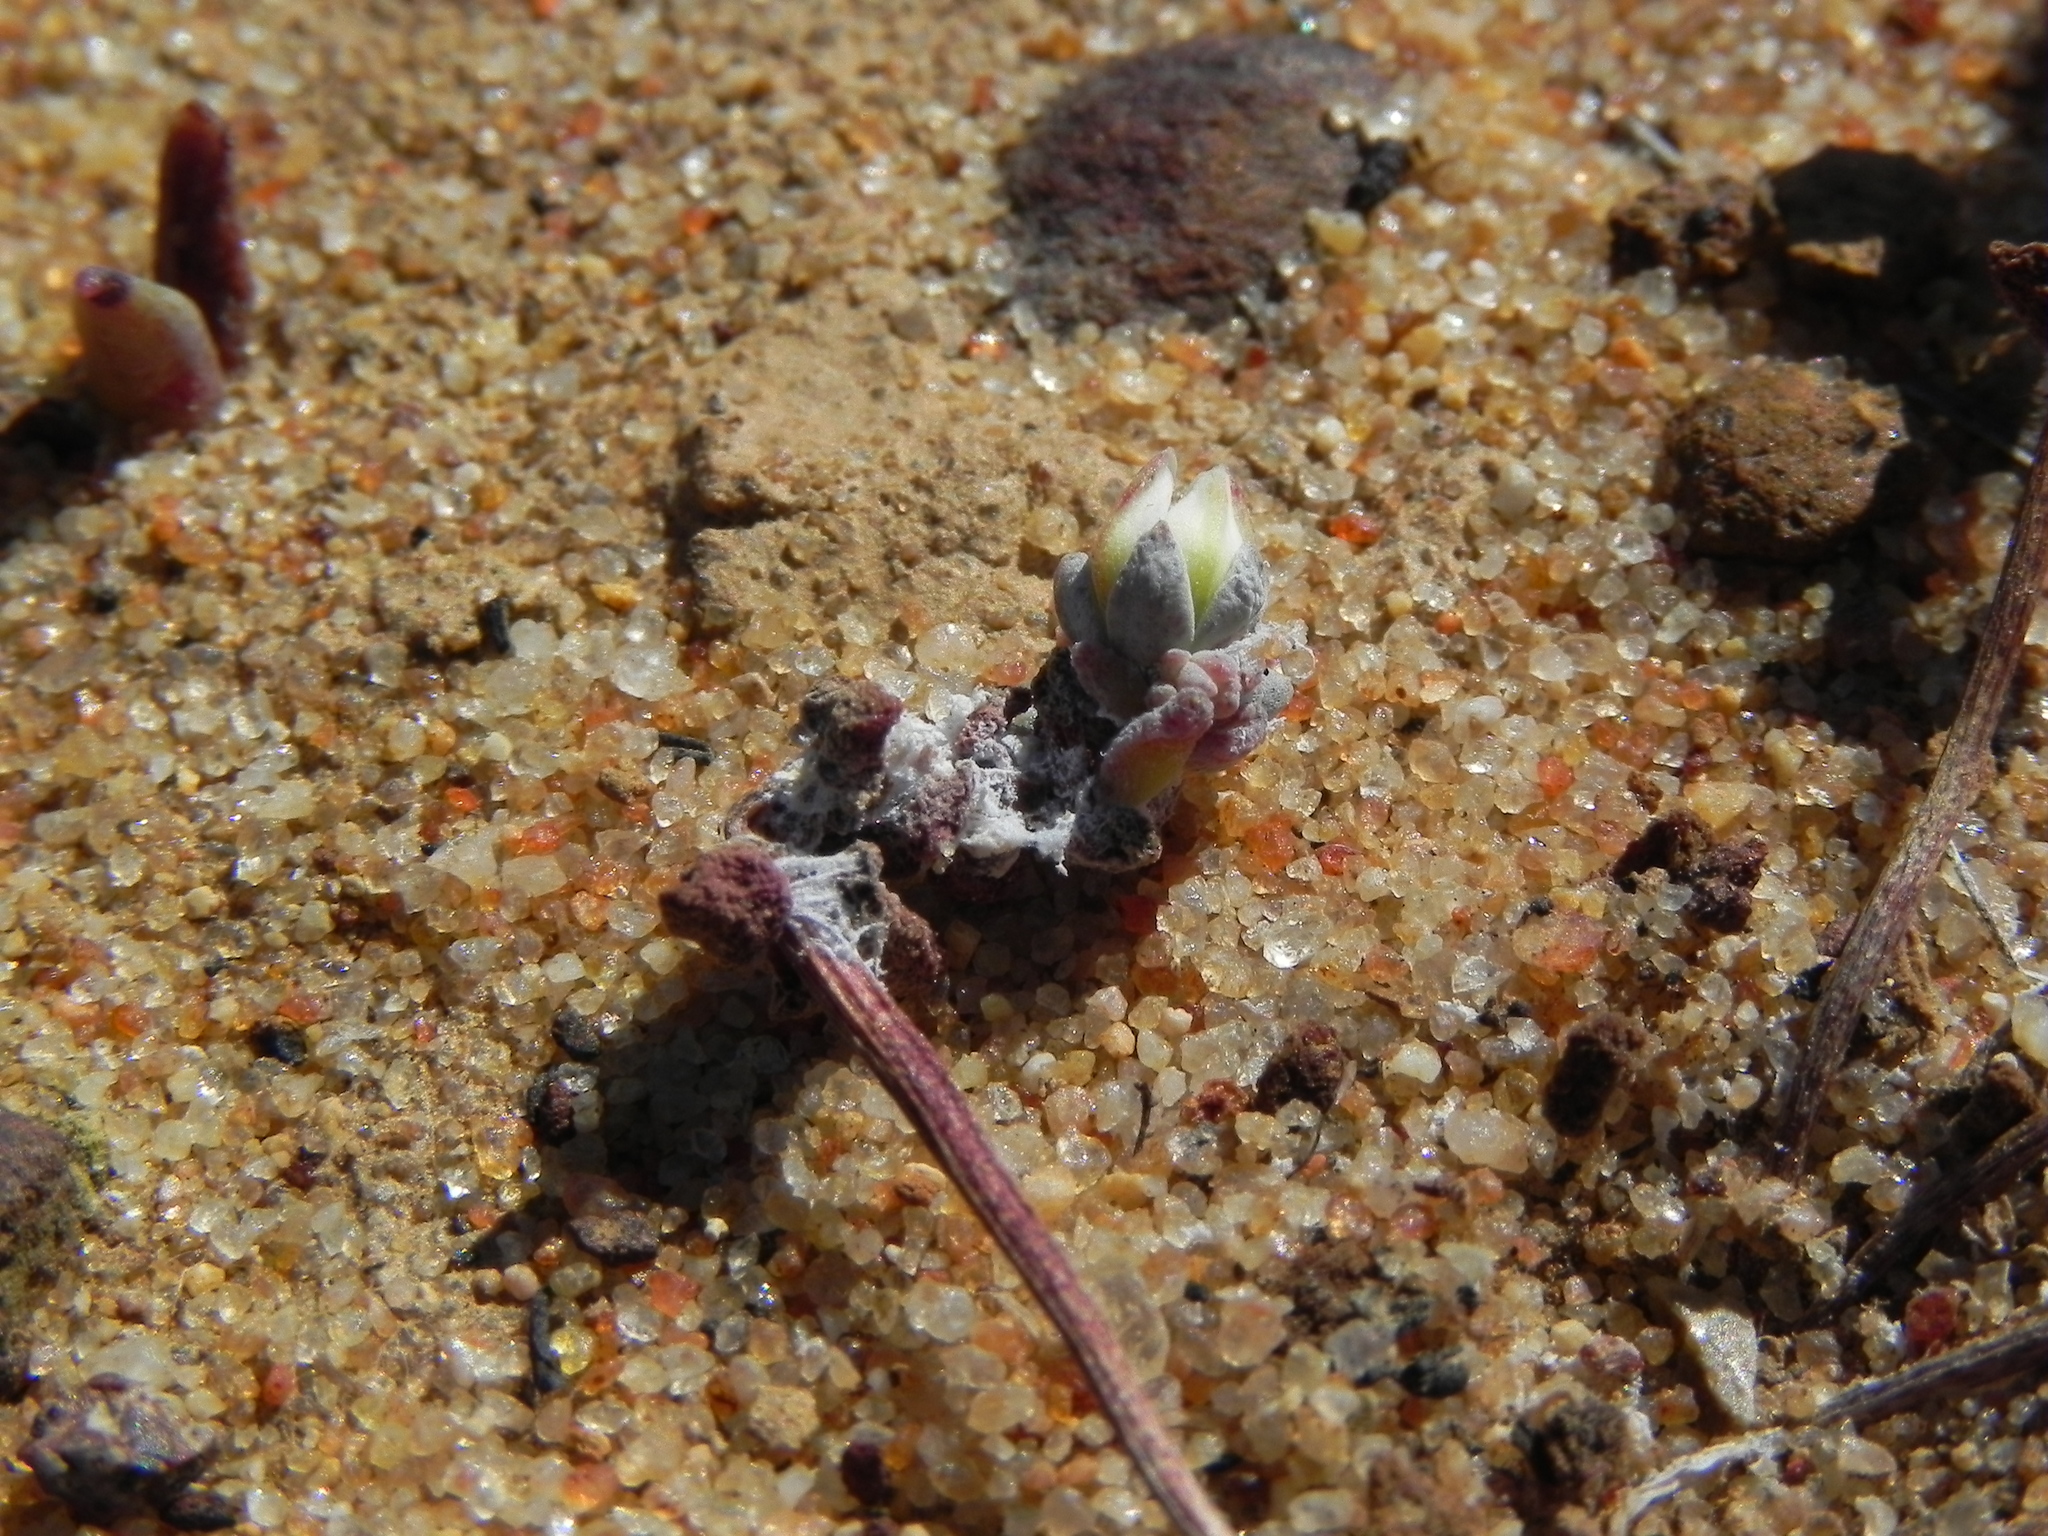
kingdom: Plantae
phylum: Tracheophyta
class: Magnoliopsida
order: Saxifragales
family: Crassulaceae
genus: Dudleya
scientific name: Dudleya blochmaniae
